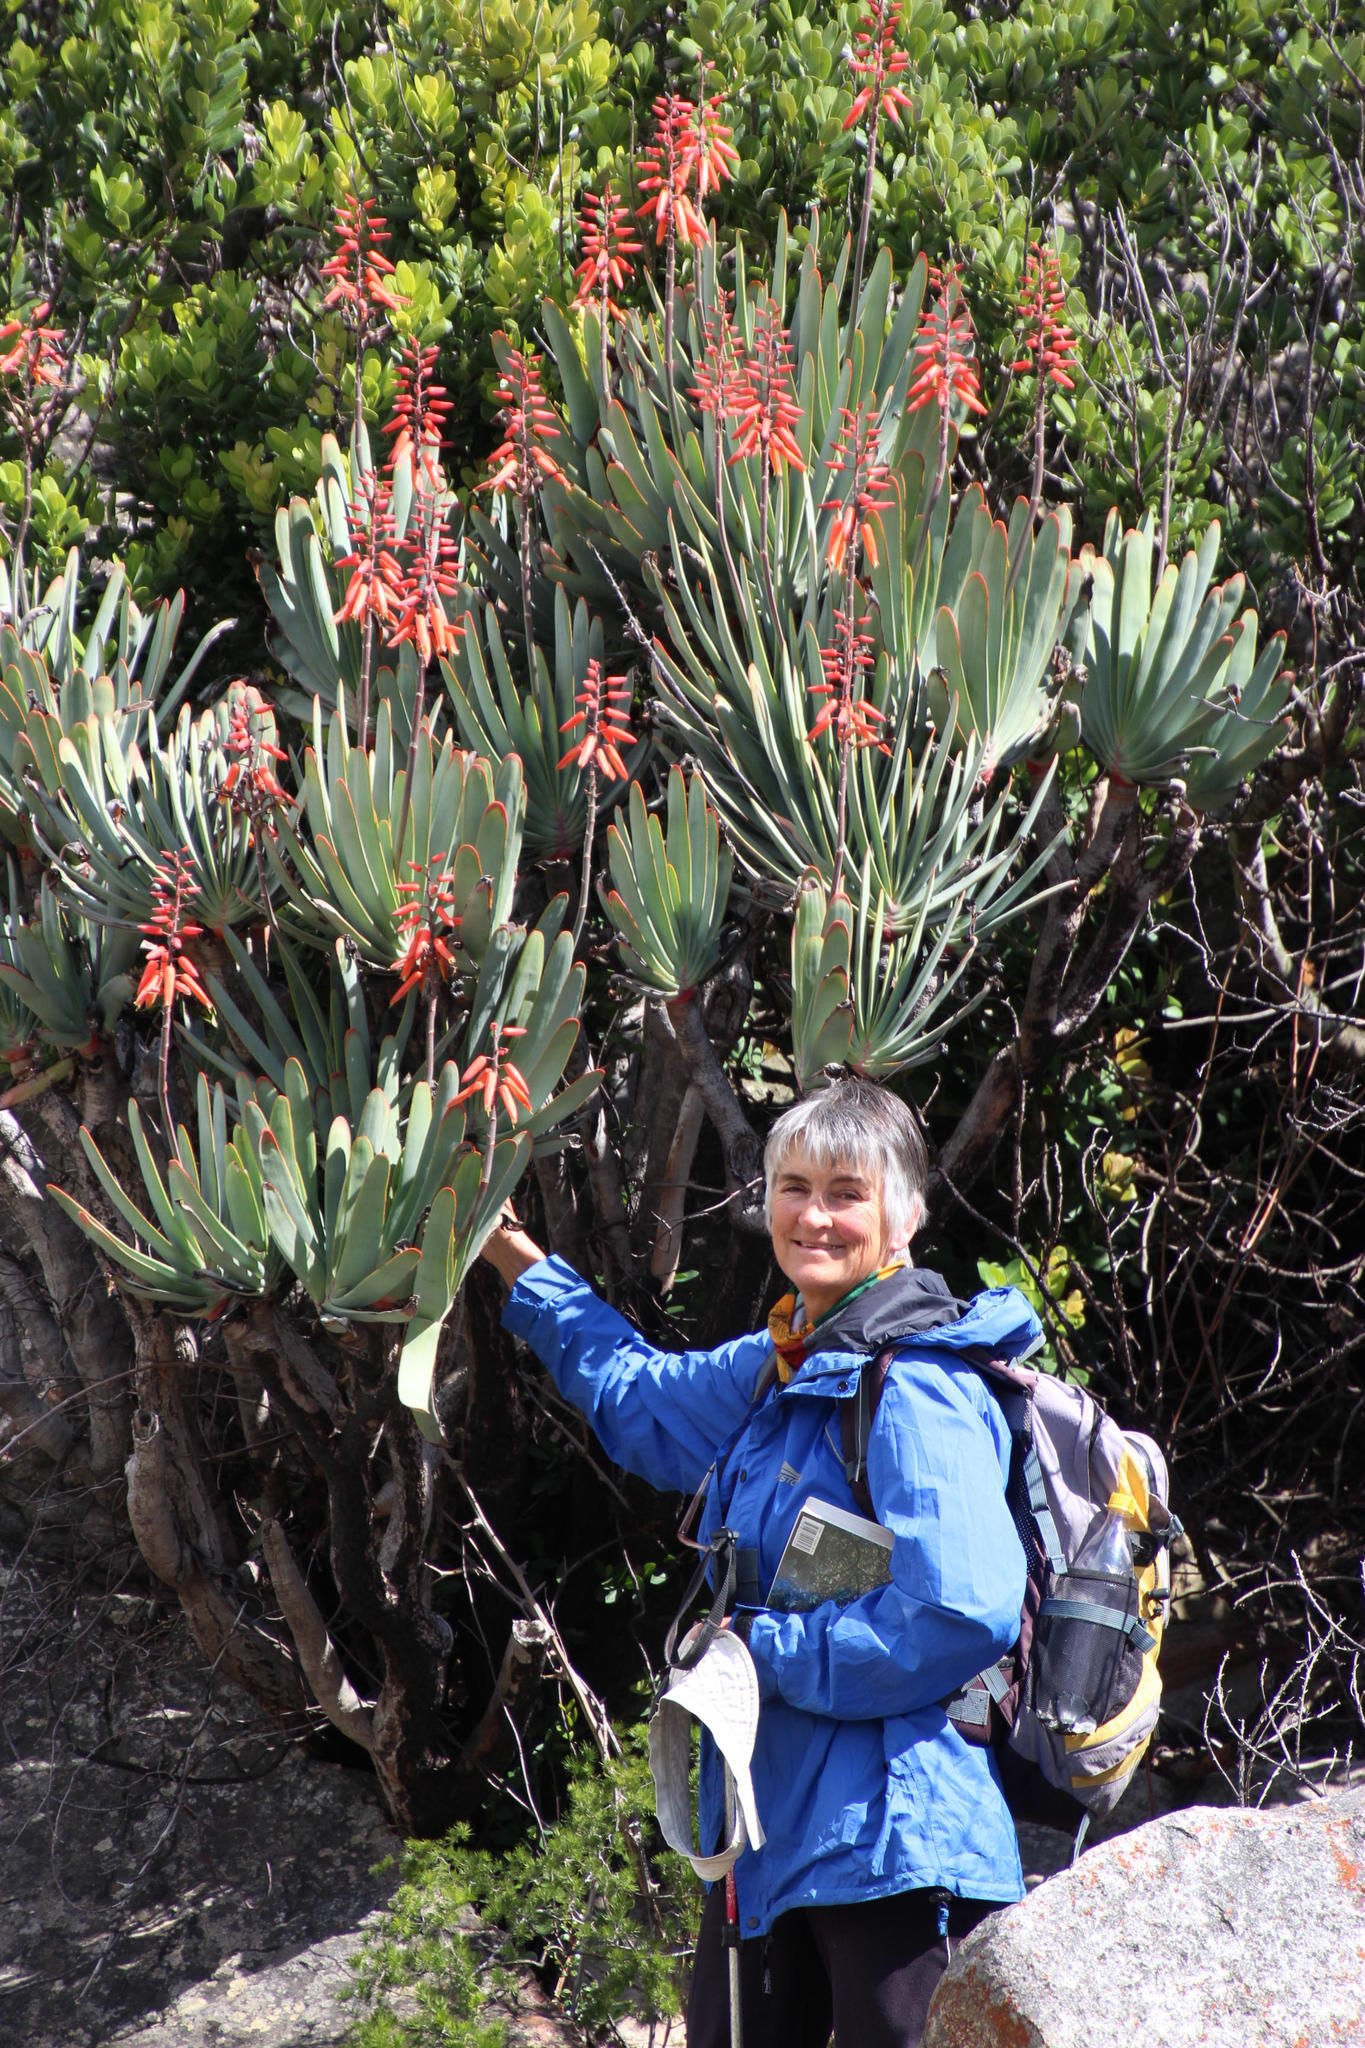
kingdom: Plantae
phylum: Tracheophyta
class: Liliopsida
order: Asparagales
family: Asphodelaceae
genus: Kumara
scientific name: Kumara plicatilis
